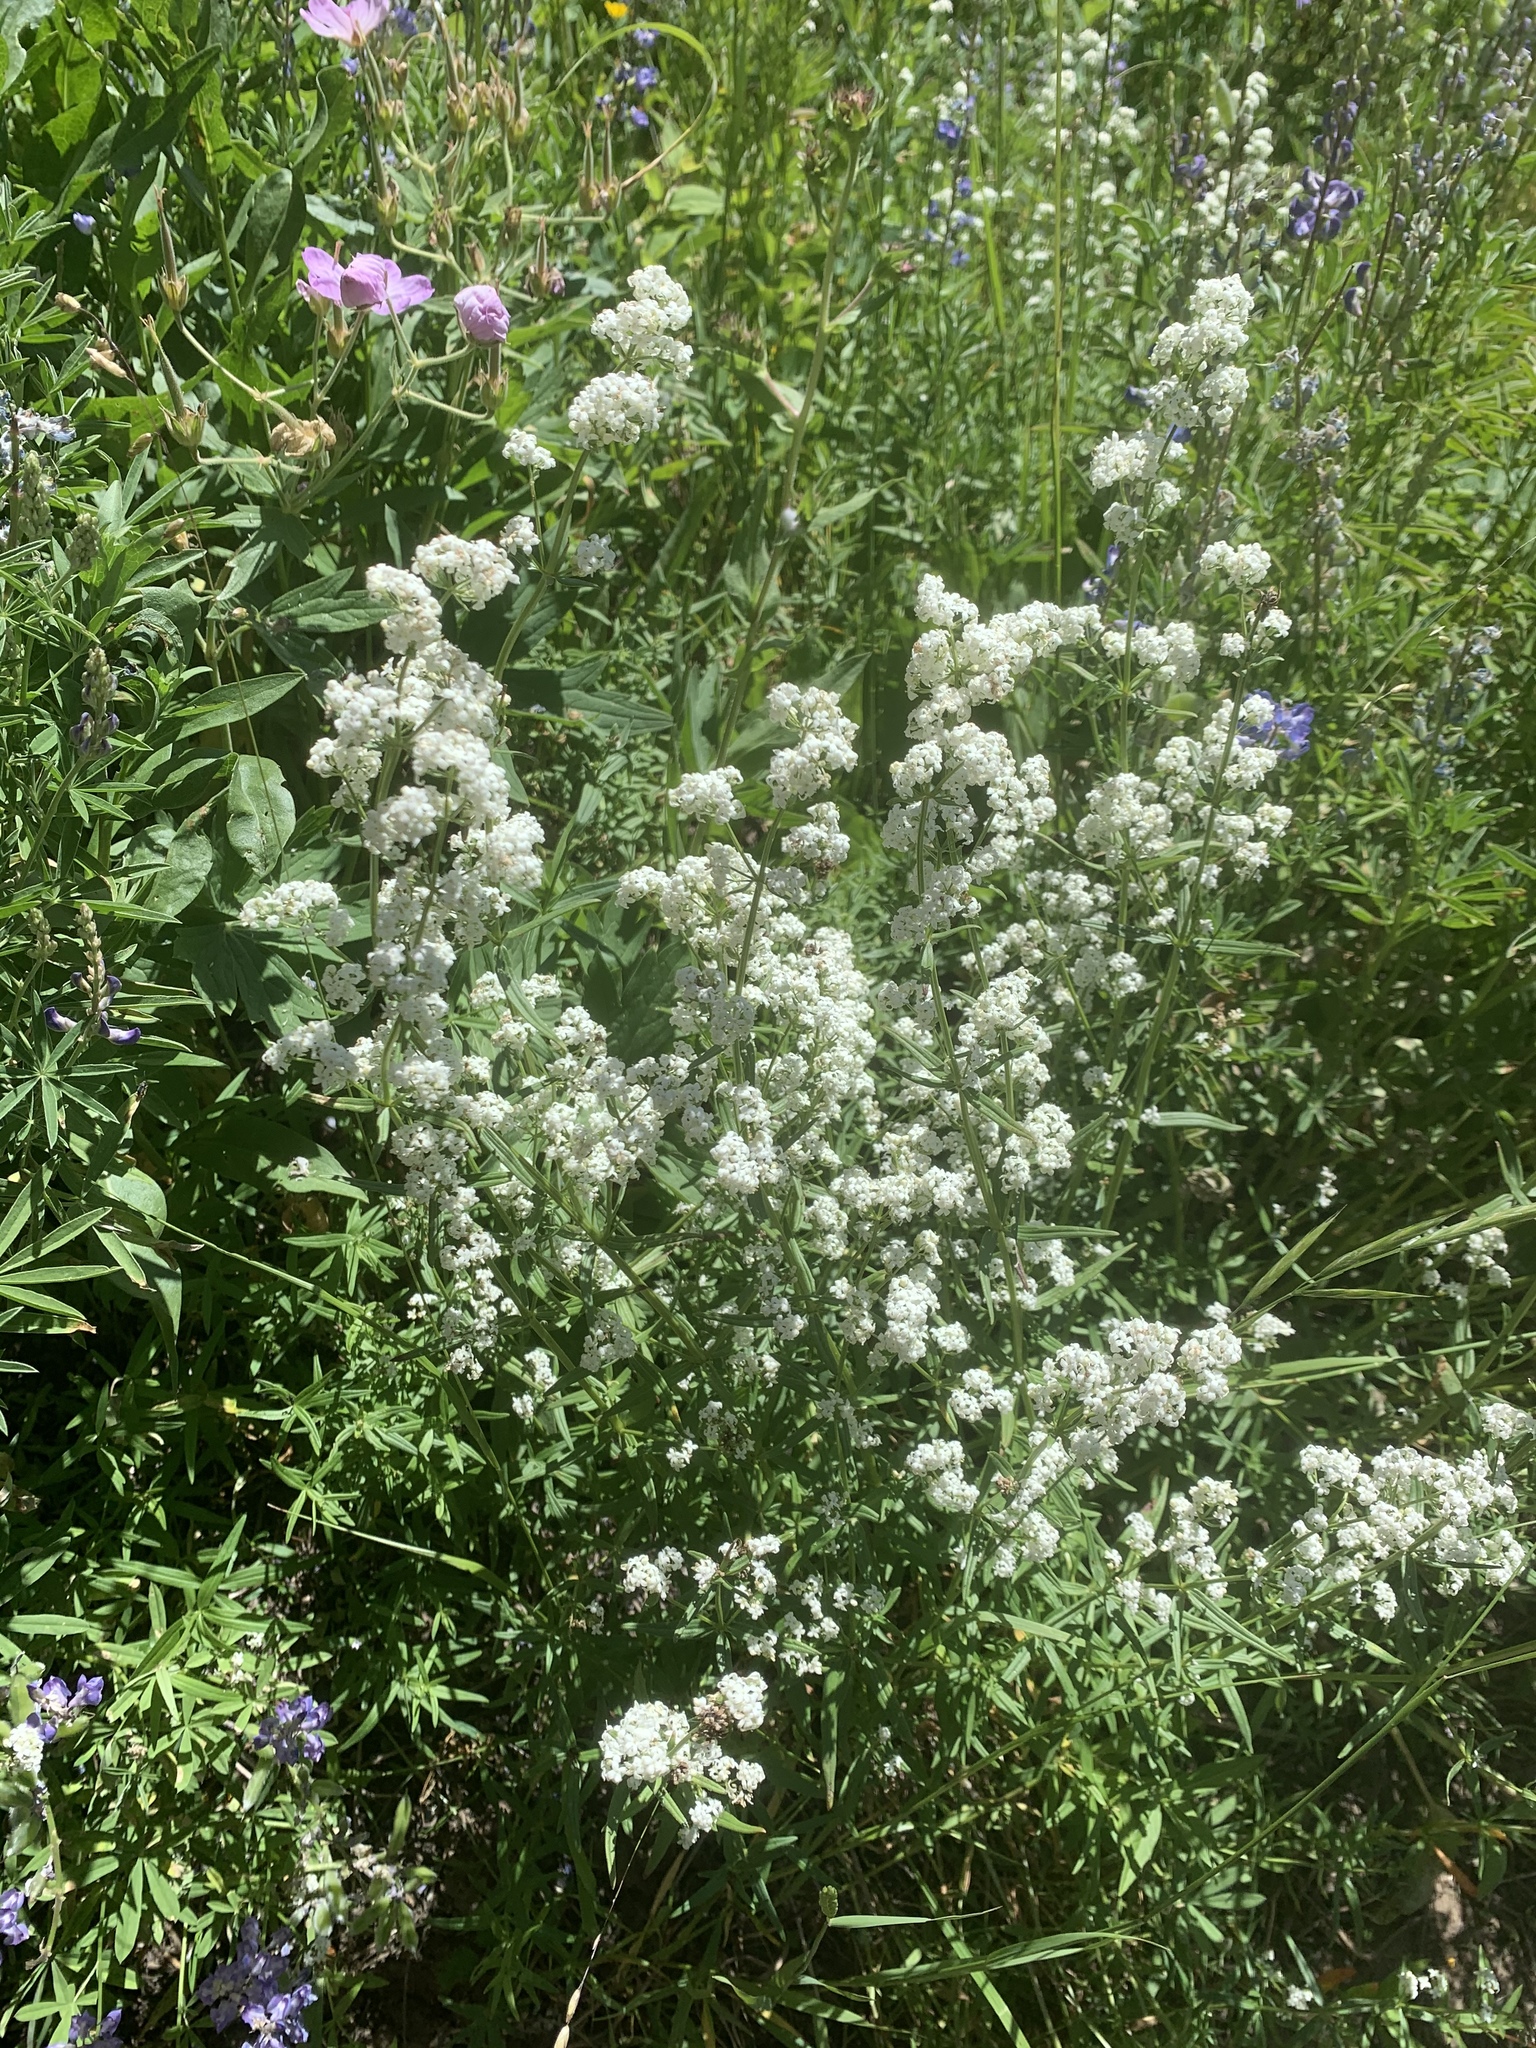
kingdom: Plantae
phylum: Tracheophyta
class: Magnoliopsida
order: Gentianales
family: Rubiaceae
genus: Galium
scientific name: Galium boreale
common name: Northern bedstraw
